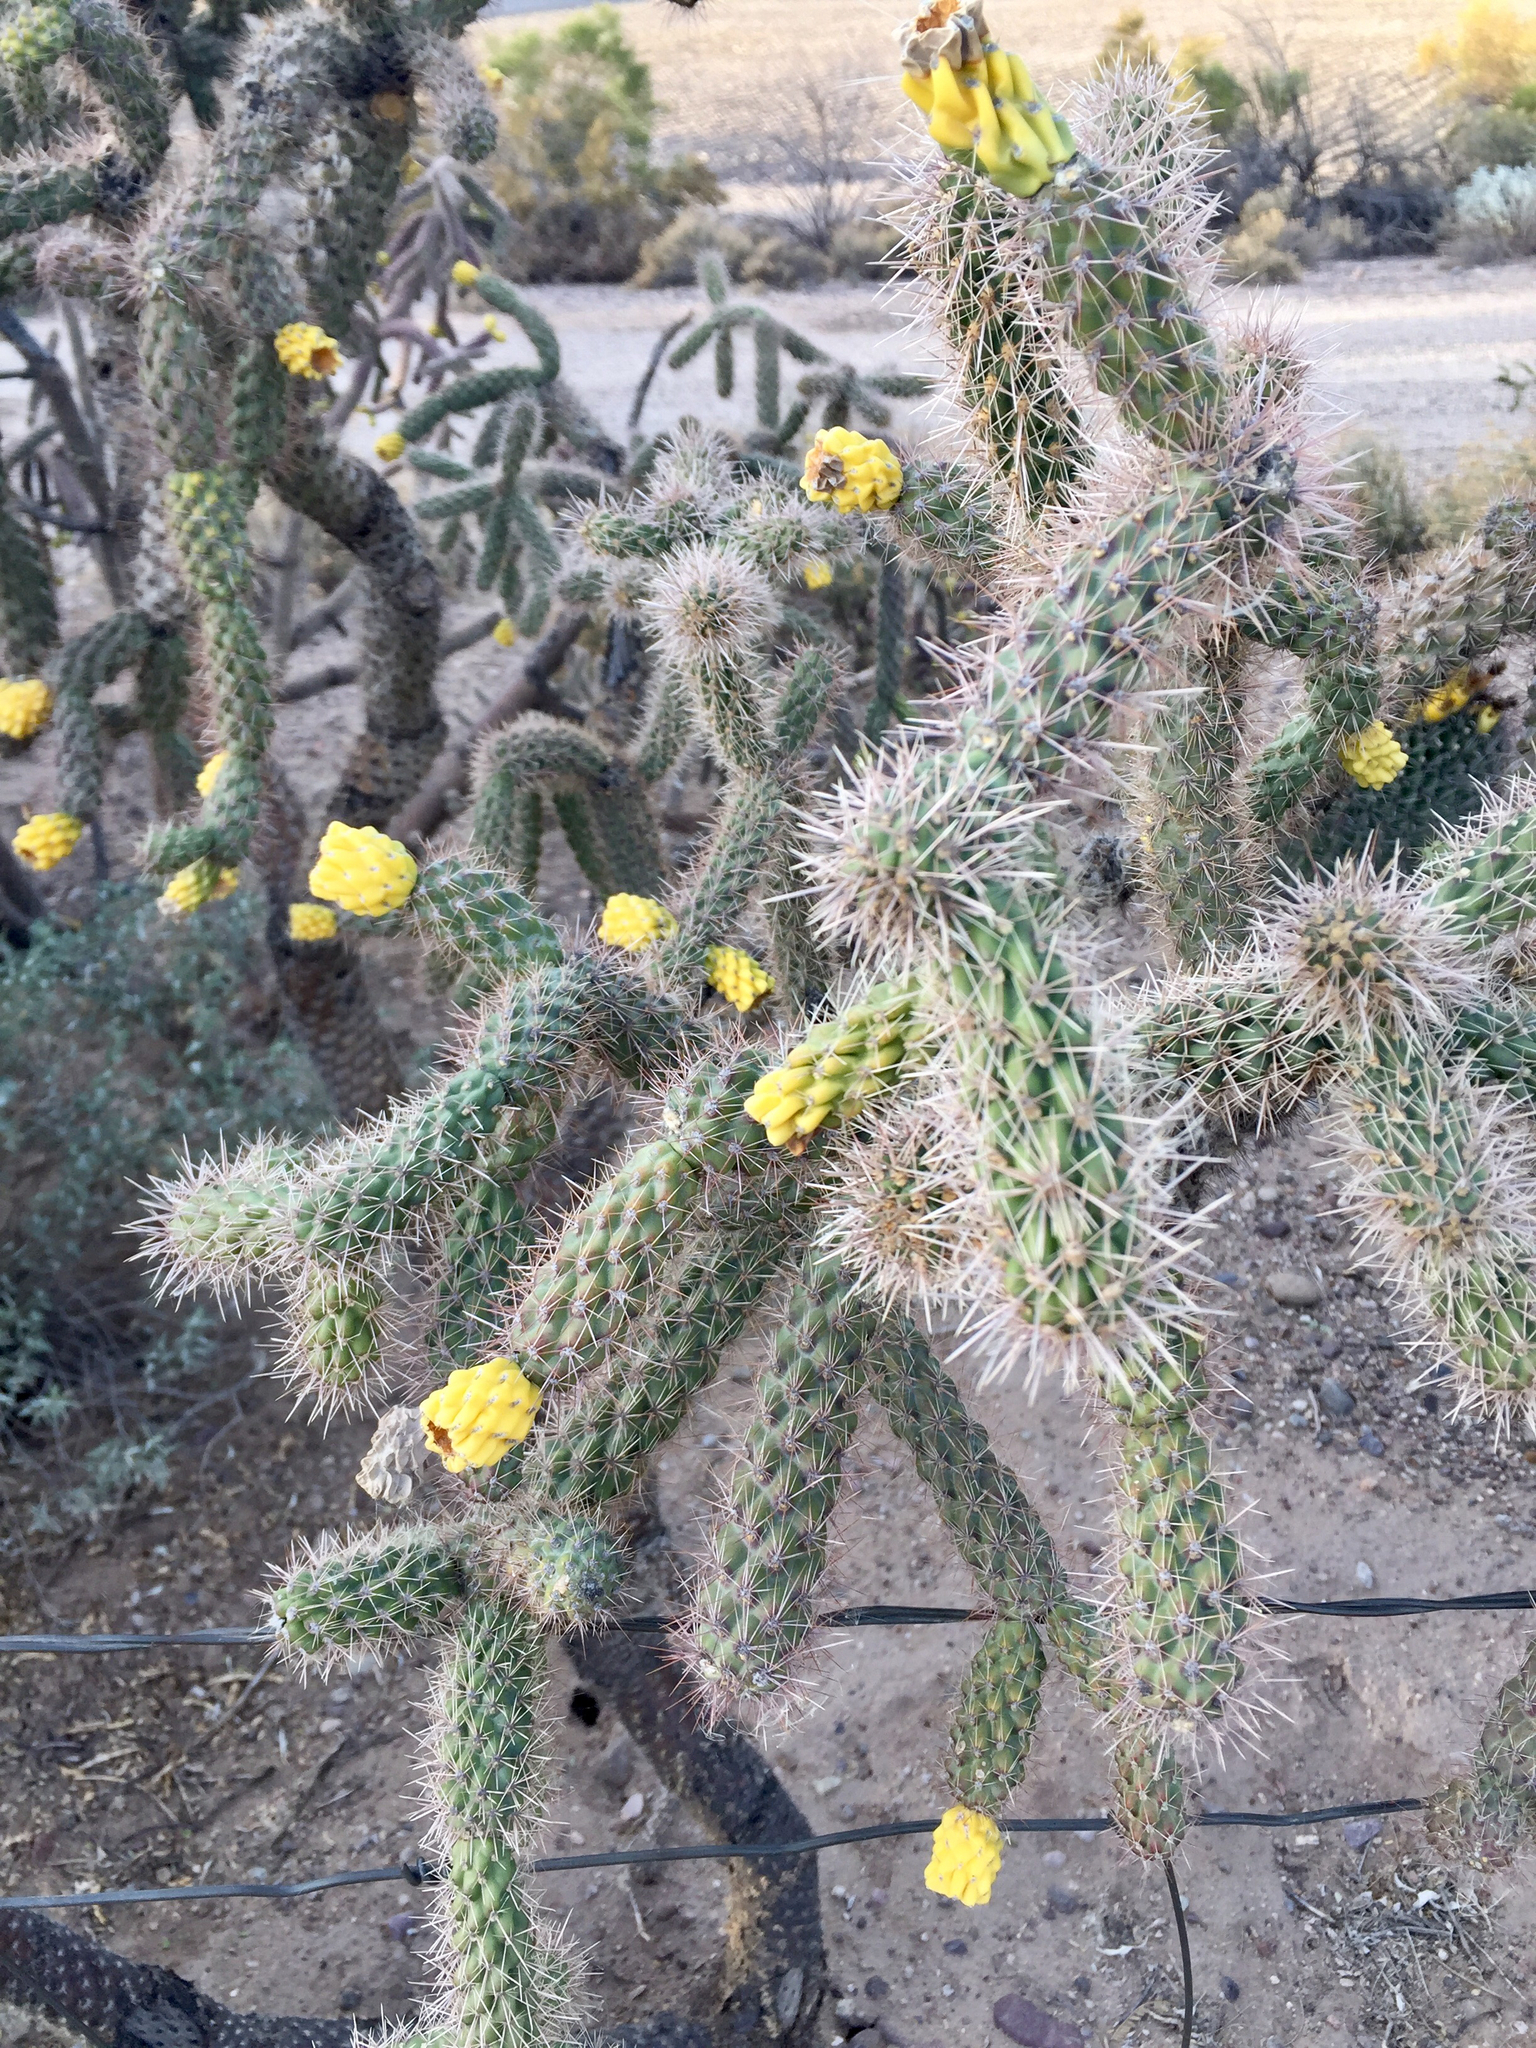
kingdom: Plantae
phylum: Tracheophyta
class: Magnoliopsida
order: Caryophyllales
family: Cactaceae
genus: Cylindropuntia
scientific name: Cylindropuntia imbricata
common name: Candelabrum cactus
